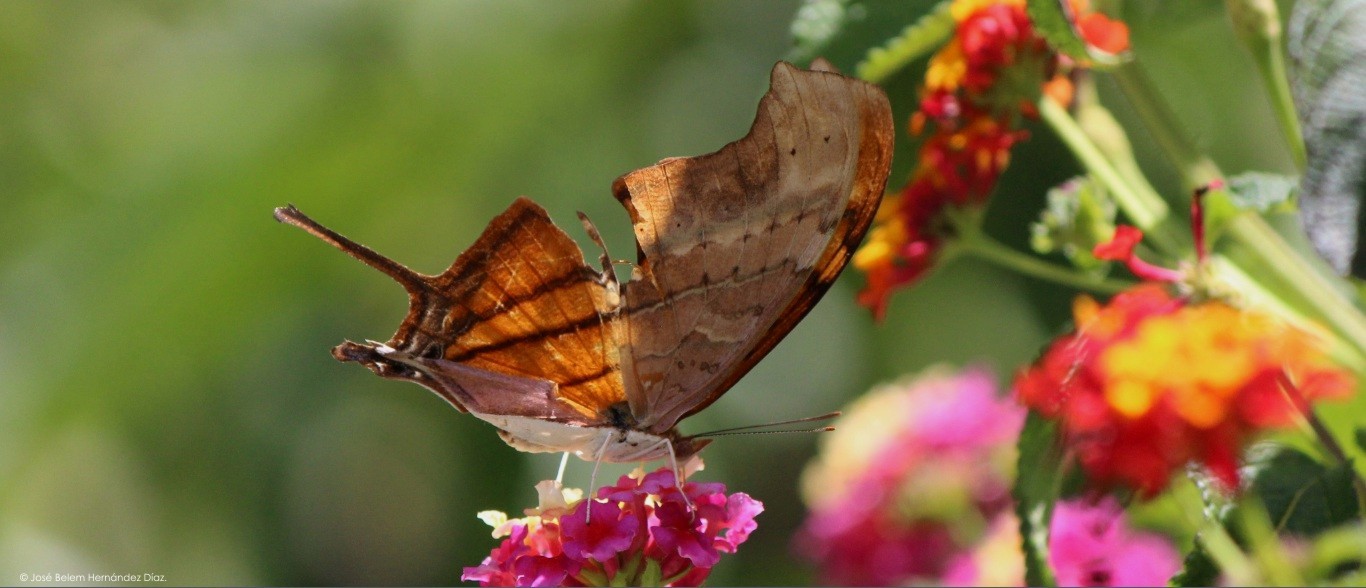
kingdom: Animalia
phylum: Arthropoda
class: Insecta
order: Lepidoptera
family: Nymphalidae
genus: Marpesia
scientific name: Marpesia petreus
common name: Red dagger wing
